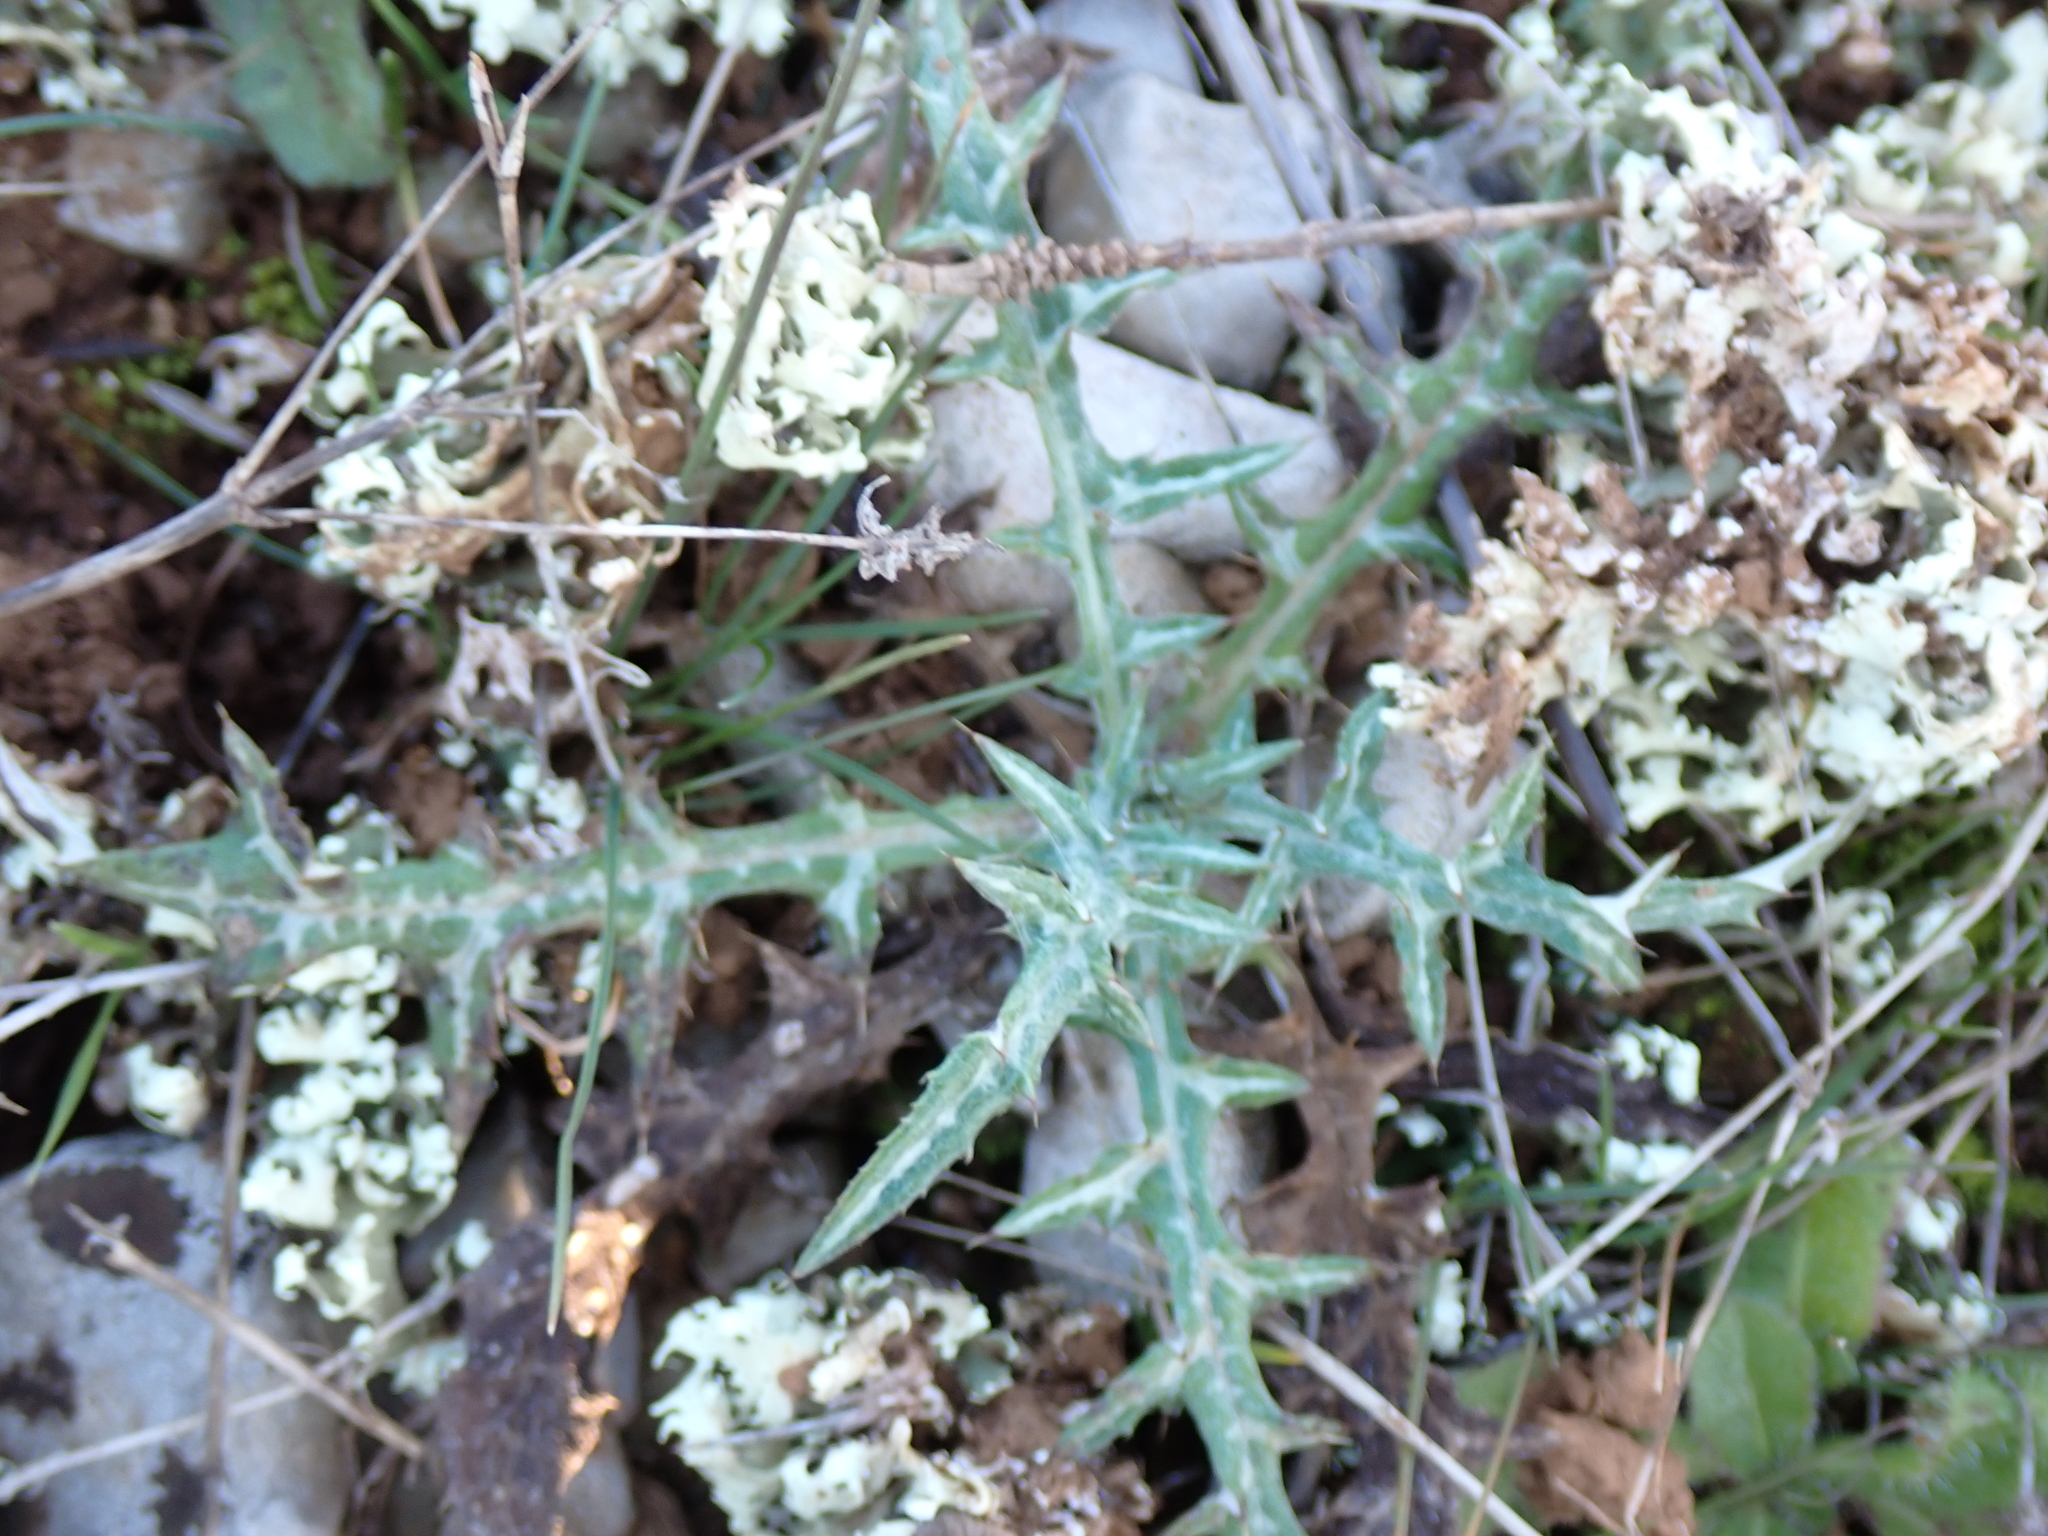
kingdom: Plantae
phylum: Tracheophyta
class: Magnoliopsida
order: Asterales
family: Asteraceae
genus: Galactites
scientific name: Galactites tomentosa
